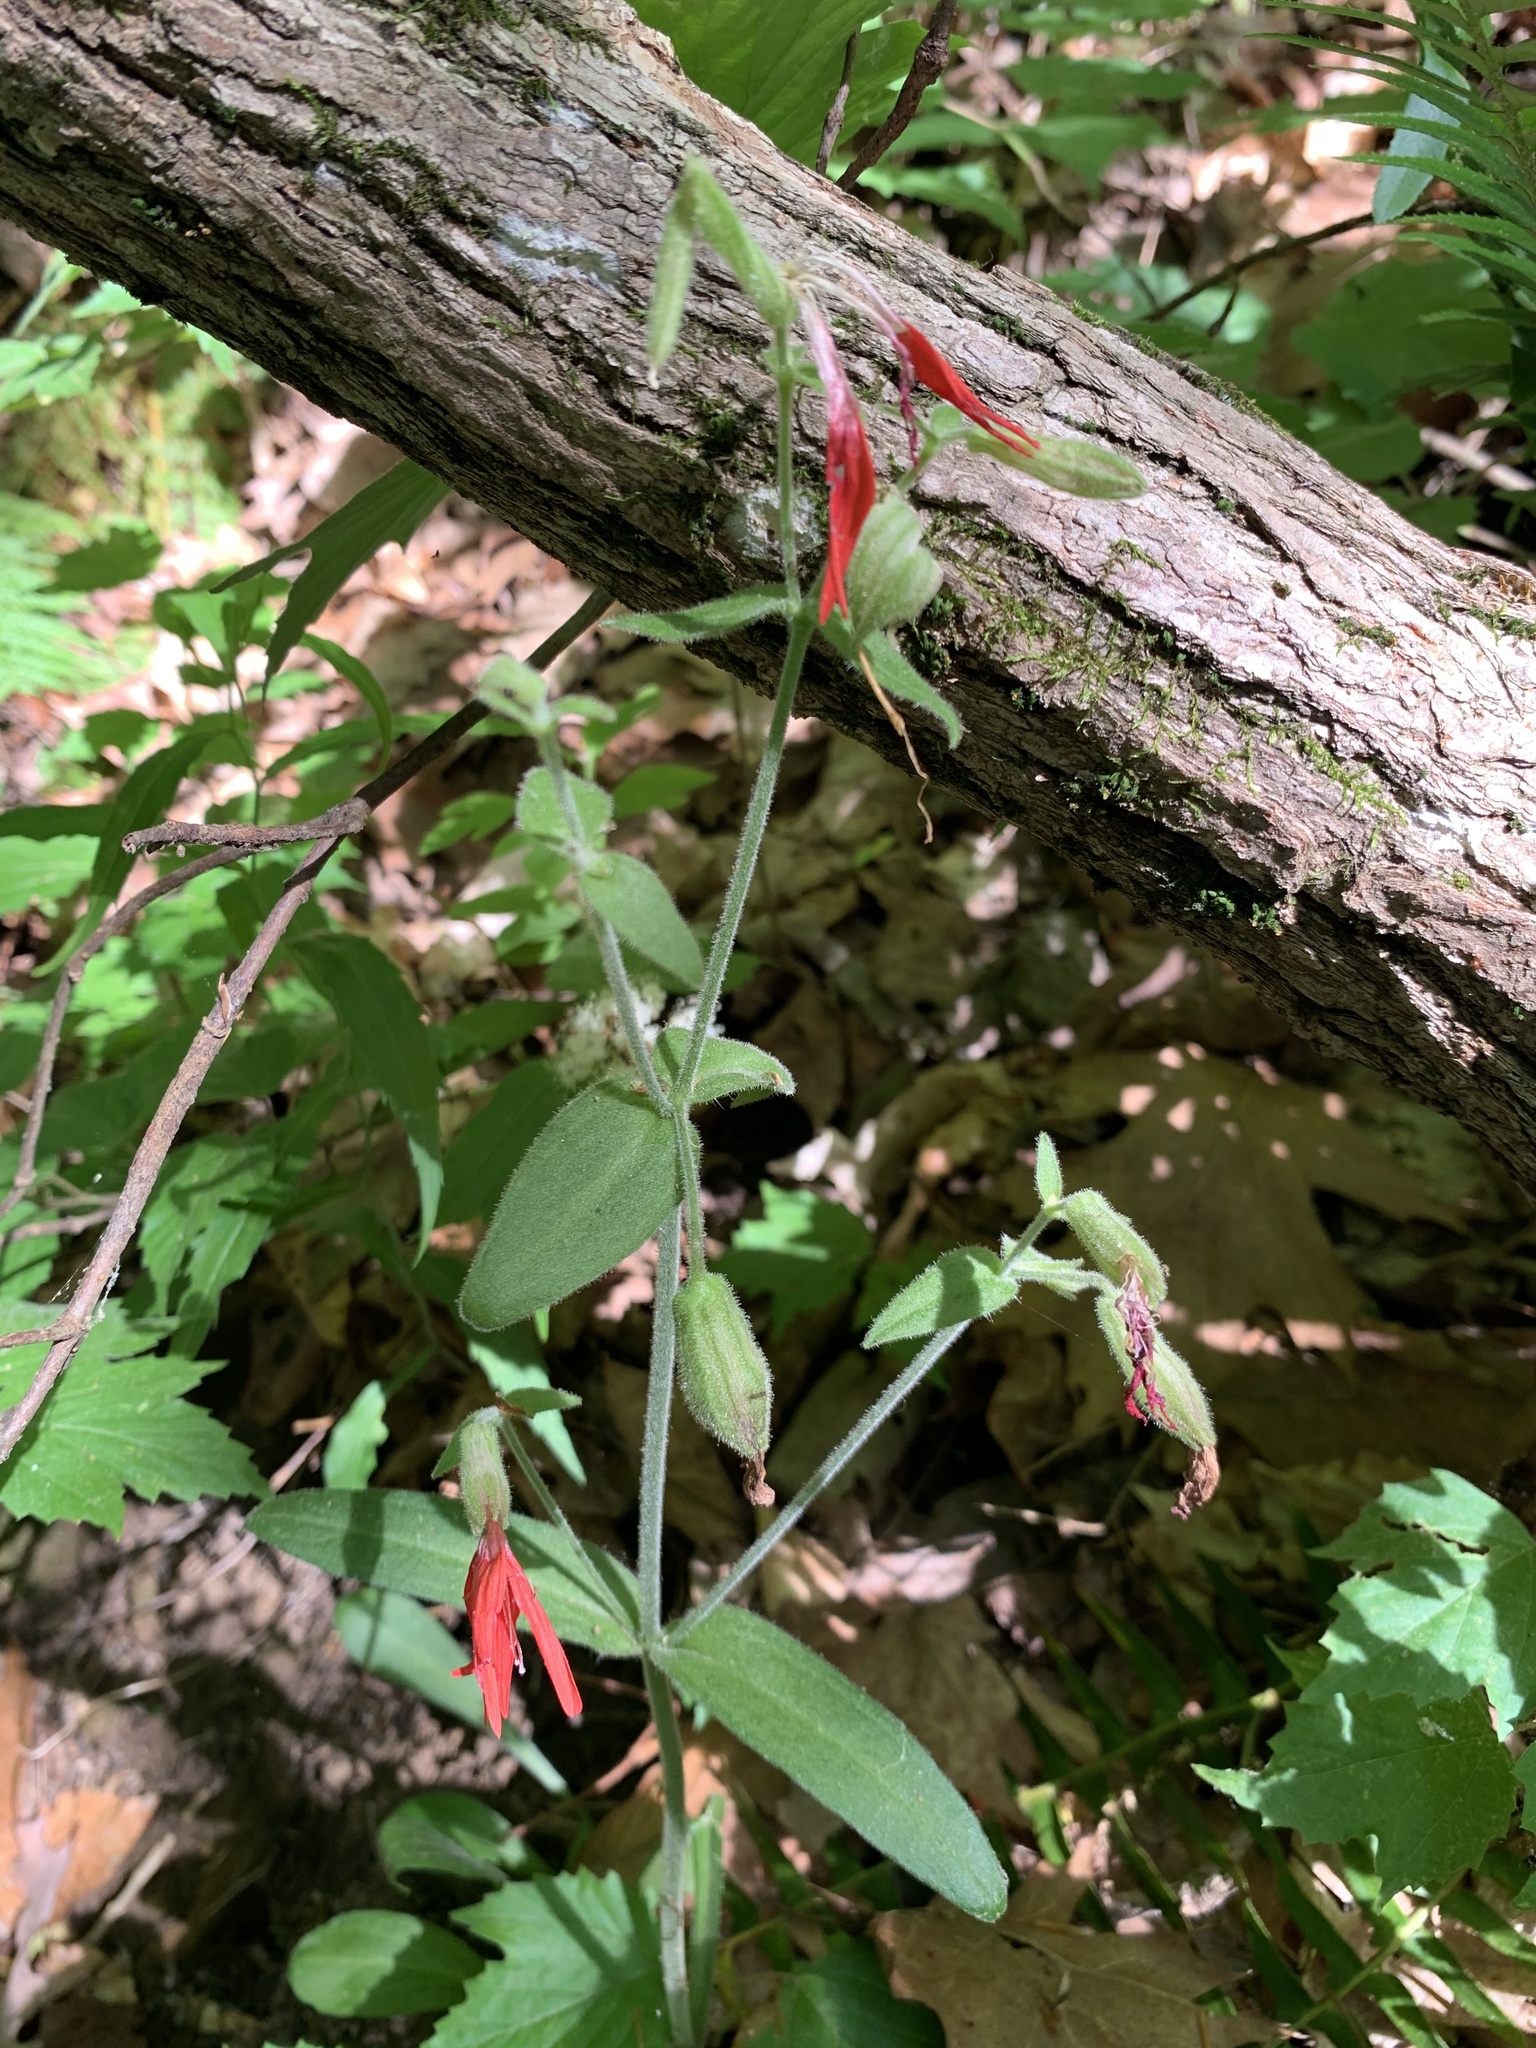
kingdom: Plantae
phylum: Tracheophyta
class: Magnoliopsida
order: Caryophyllales
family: Caryophyllaceae
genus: Silene
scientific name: Silene virginica
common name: Fire-pink
